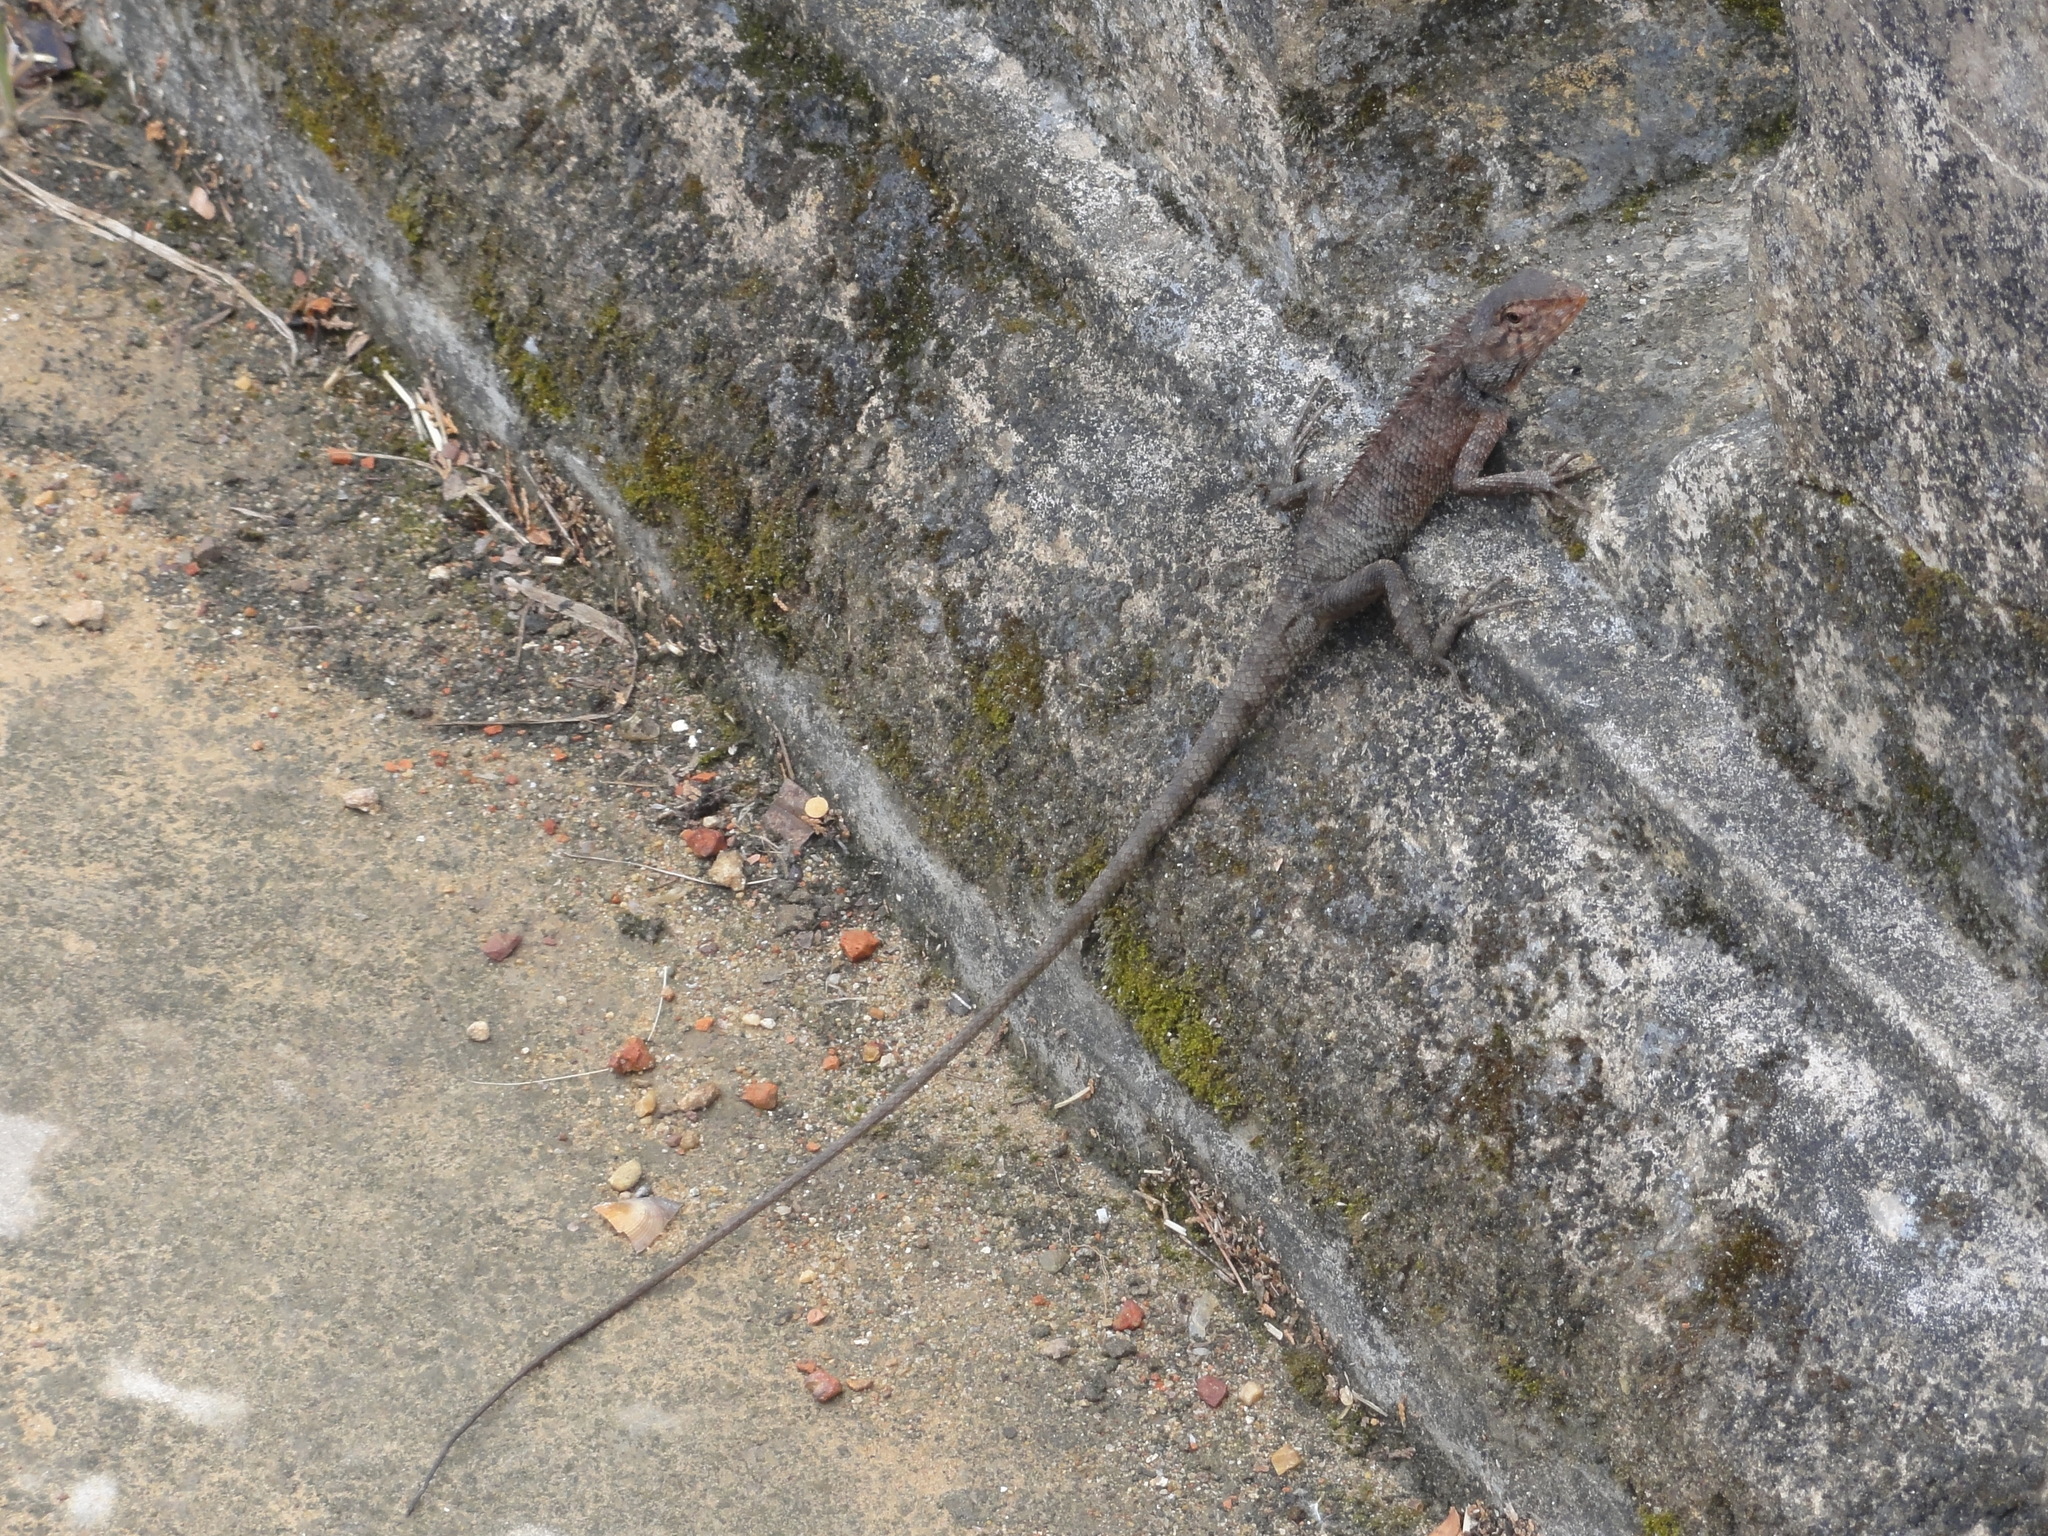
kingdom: Animalia
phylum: Chordata
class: Squamata
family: Agamidae
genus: Calotes
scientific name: Calotes versicolor
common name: Oriental garden lizard
